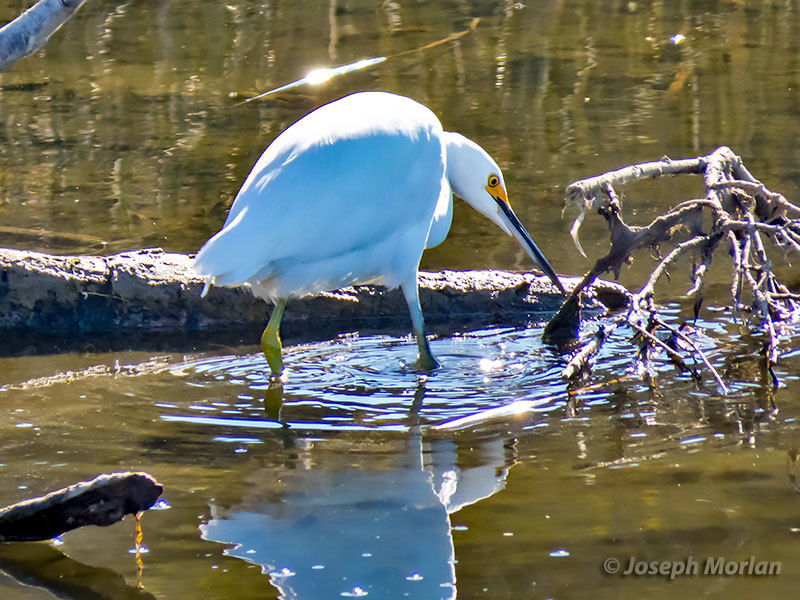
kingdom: Animalia
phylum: Chordata
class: Aves
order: Pelecaniformes
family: Ardeidae
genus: Egretta
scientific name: Egretta thula
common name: Snowy egret
